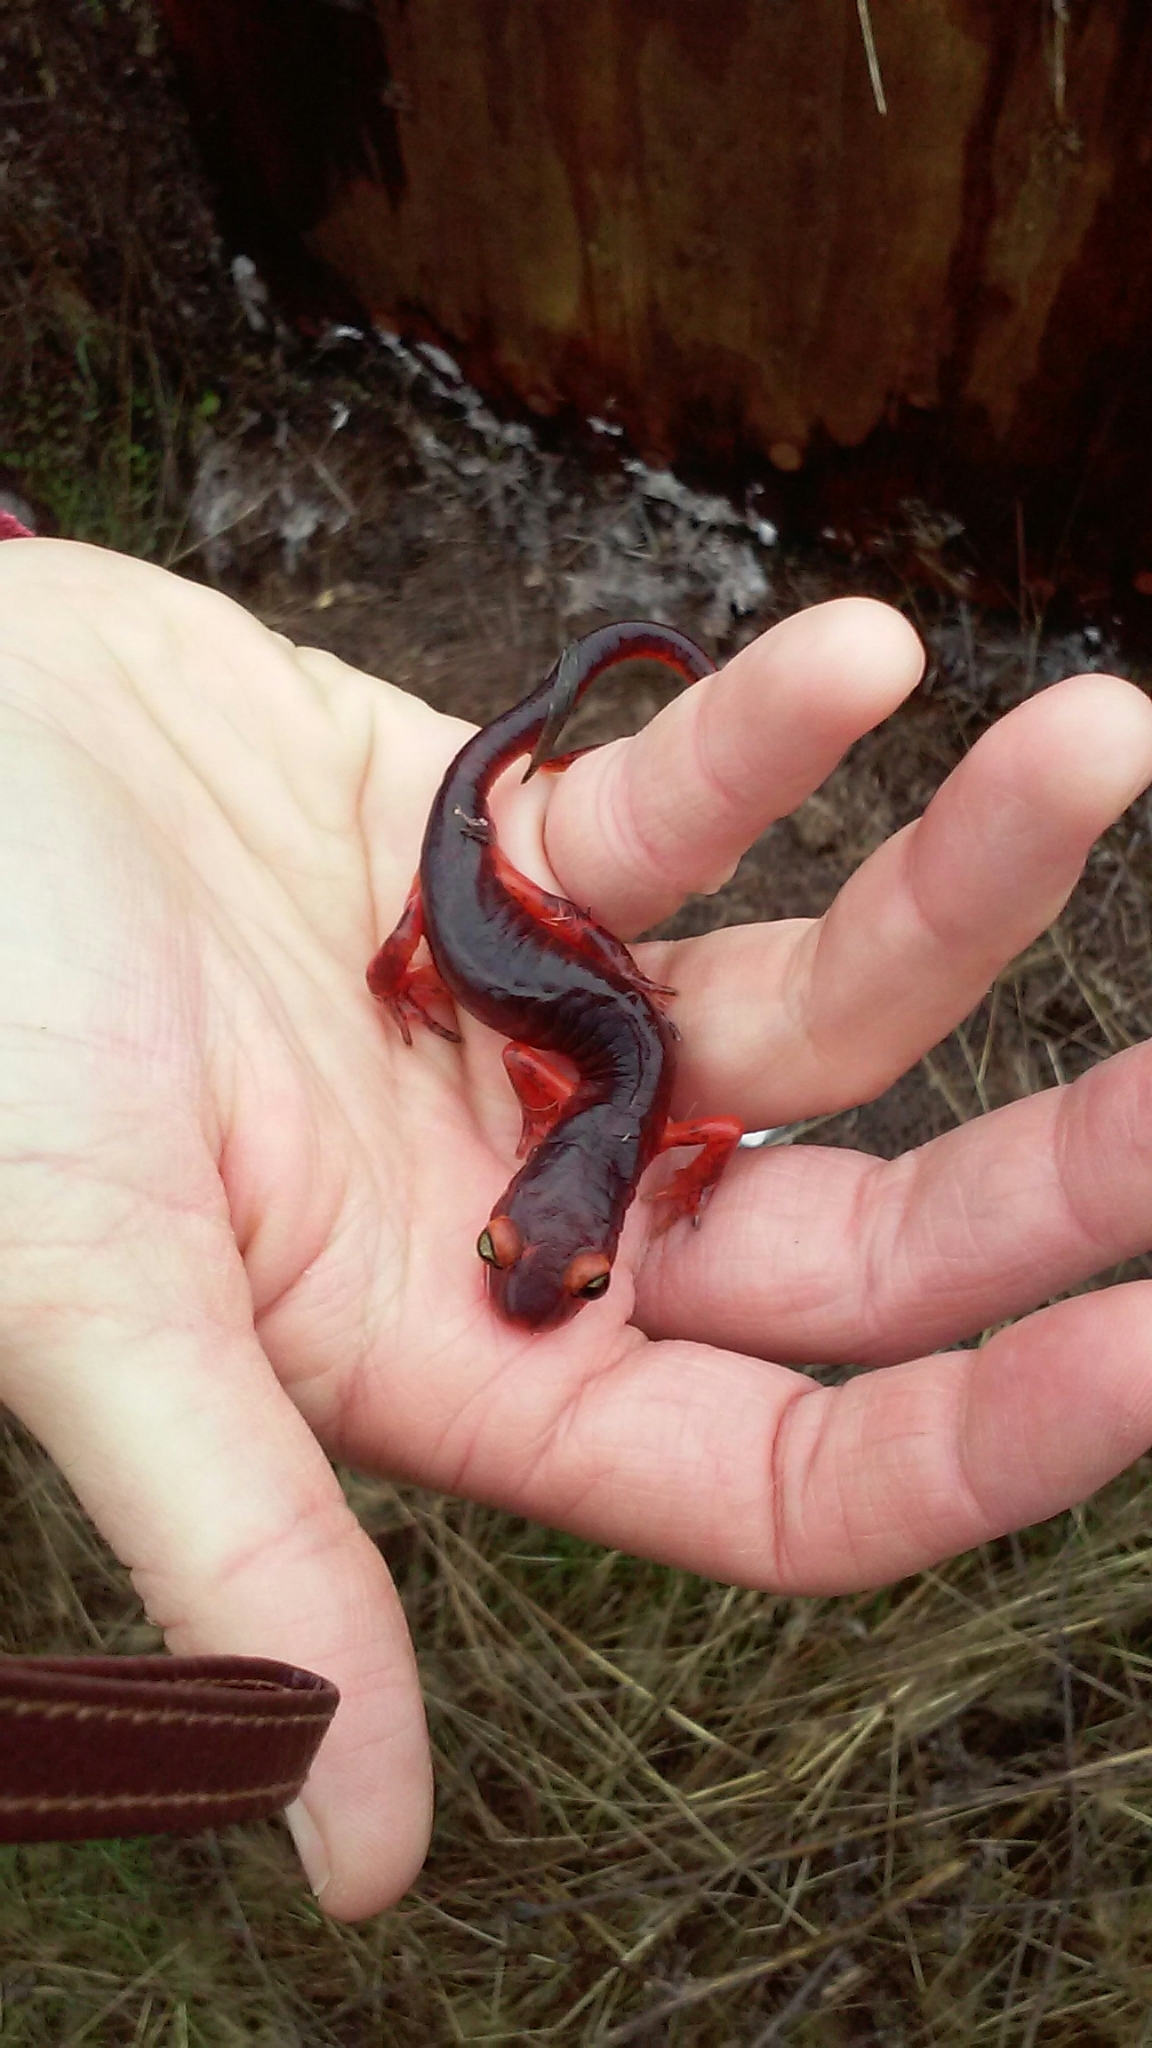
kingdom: Animalia
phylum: Chordata
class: Amphibia
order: Caudata
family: Plethodontidae
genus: Ensatina
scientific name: Ensatina eschscholtzii
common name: Ensatina
